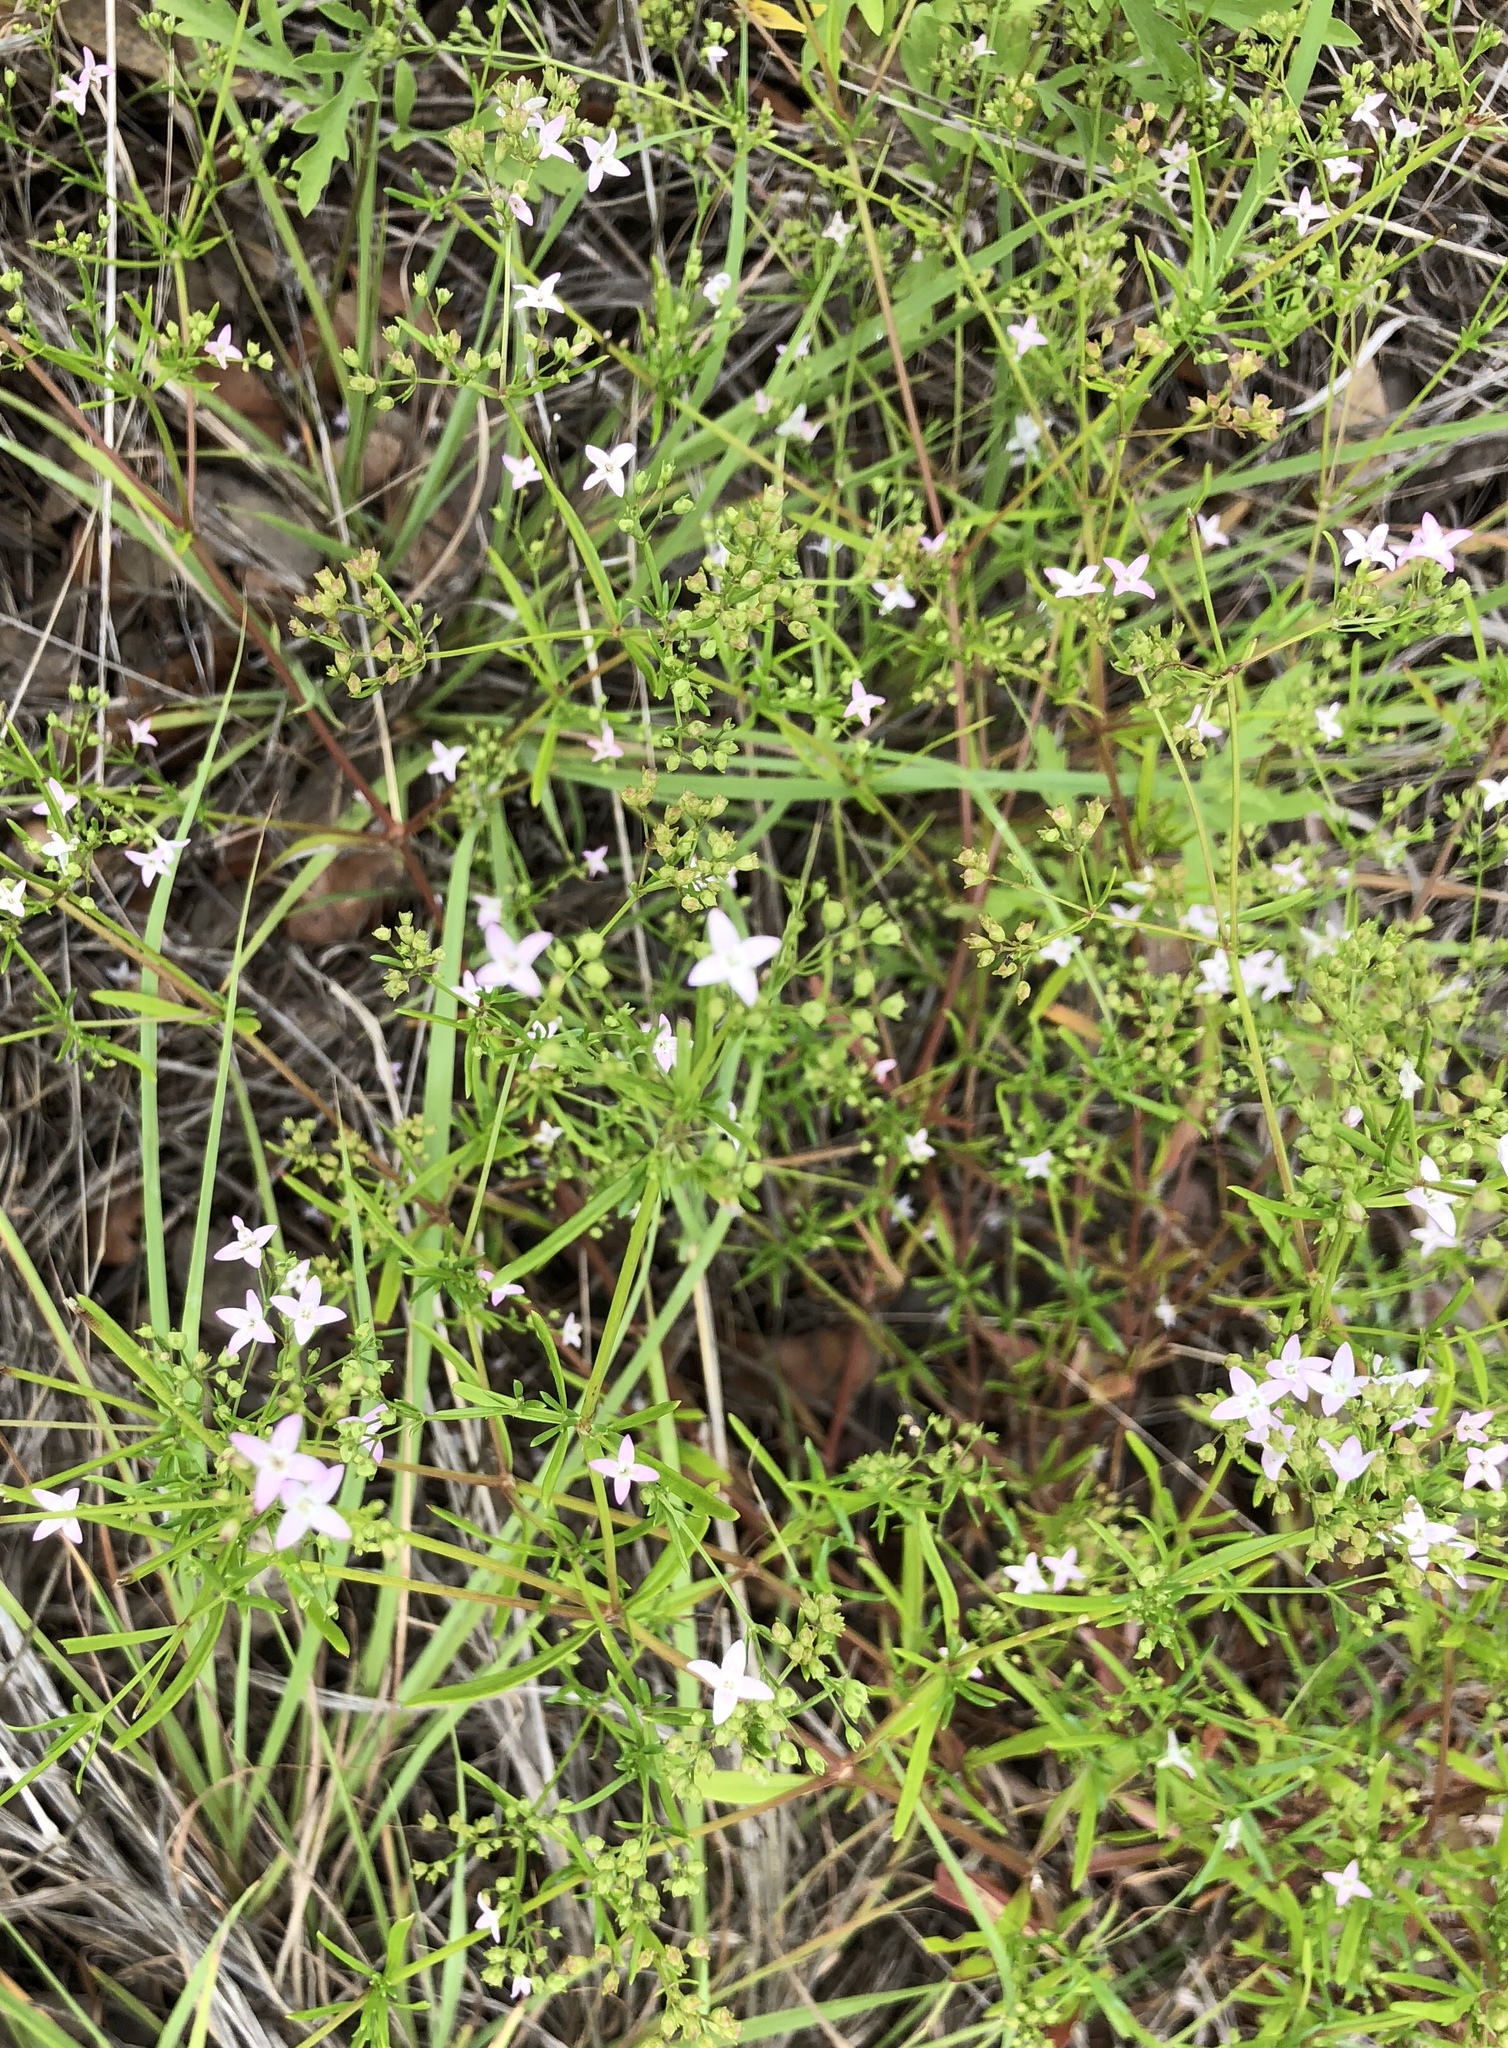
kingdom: Plantae
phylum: Tracheophyta
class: Magnoliopsida
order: Gentianales
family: Rubiaceae
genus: Sherardia
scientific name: Sherardia arvensis
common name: Field madder
